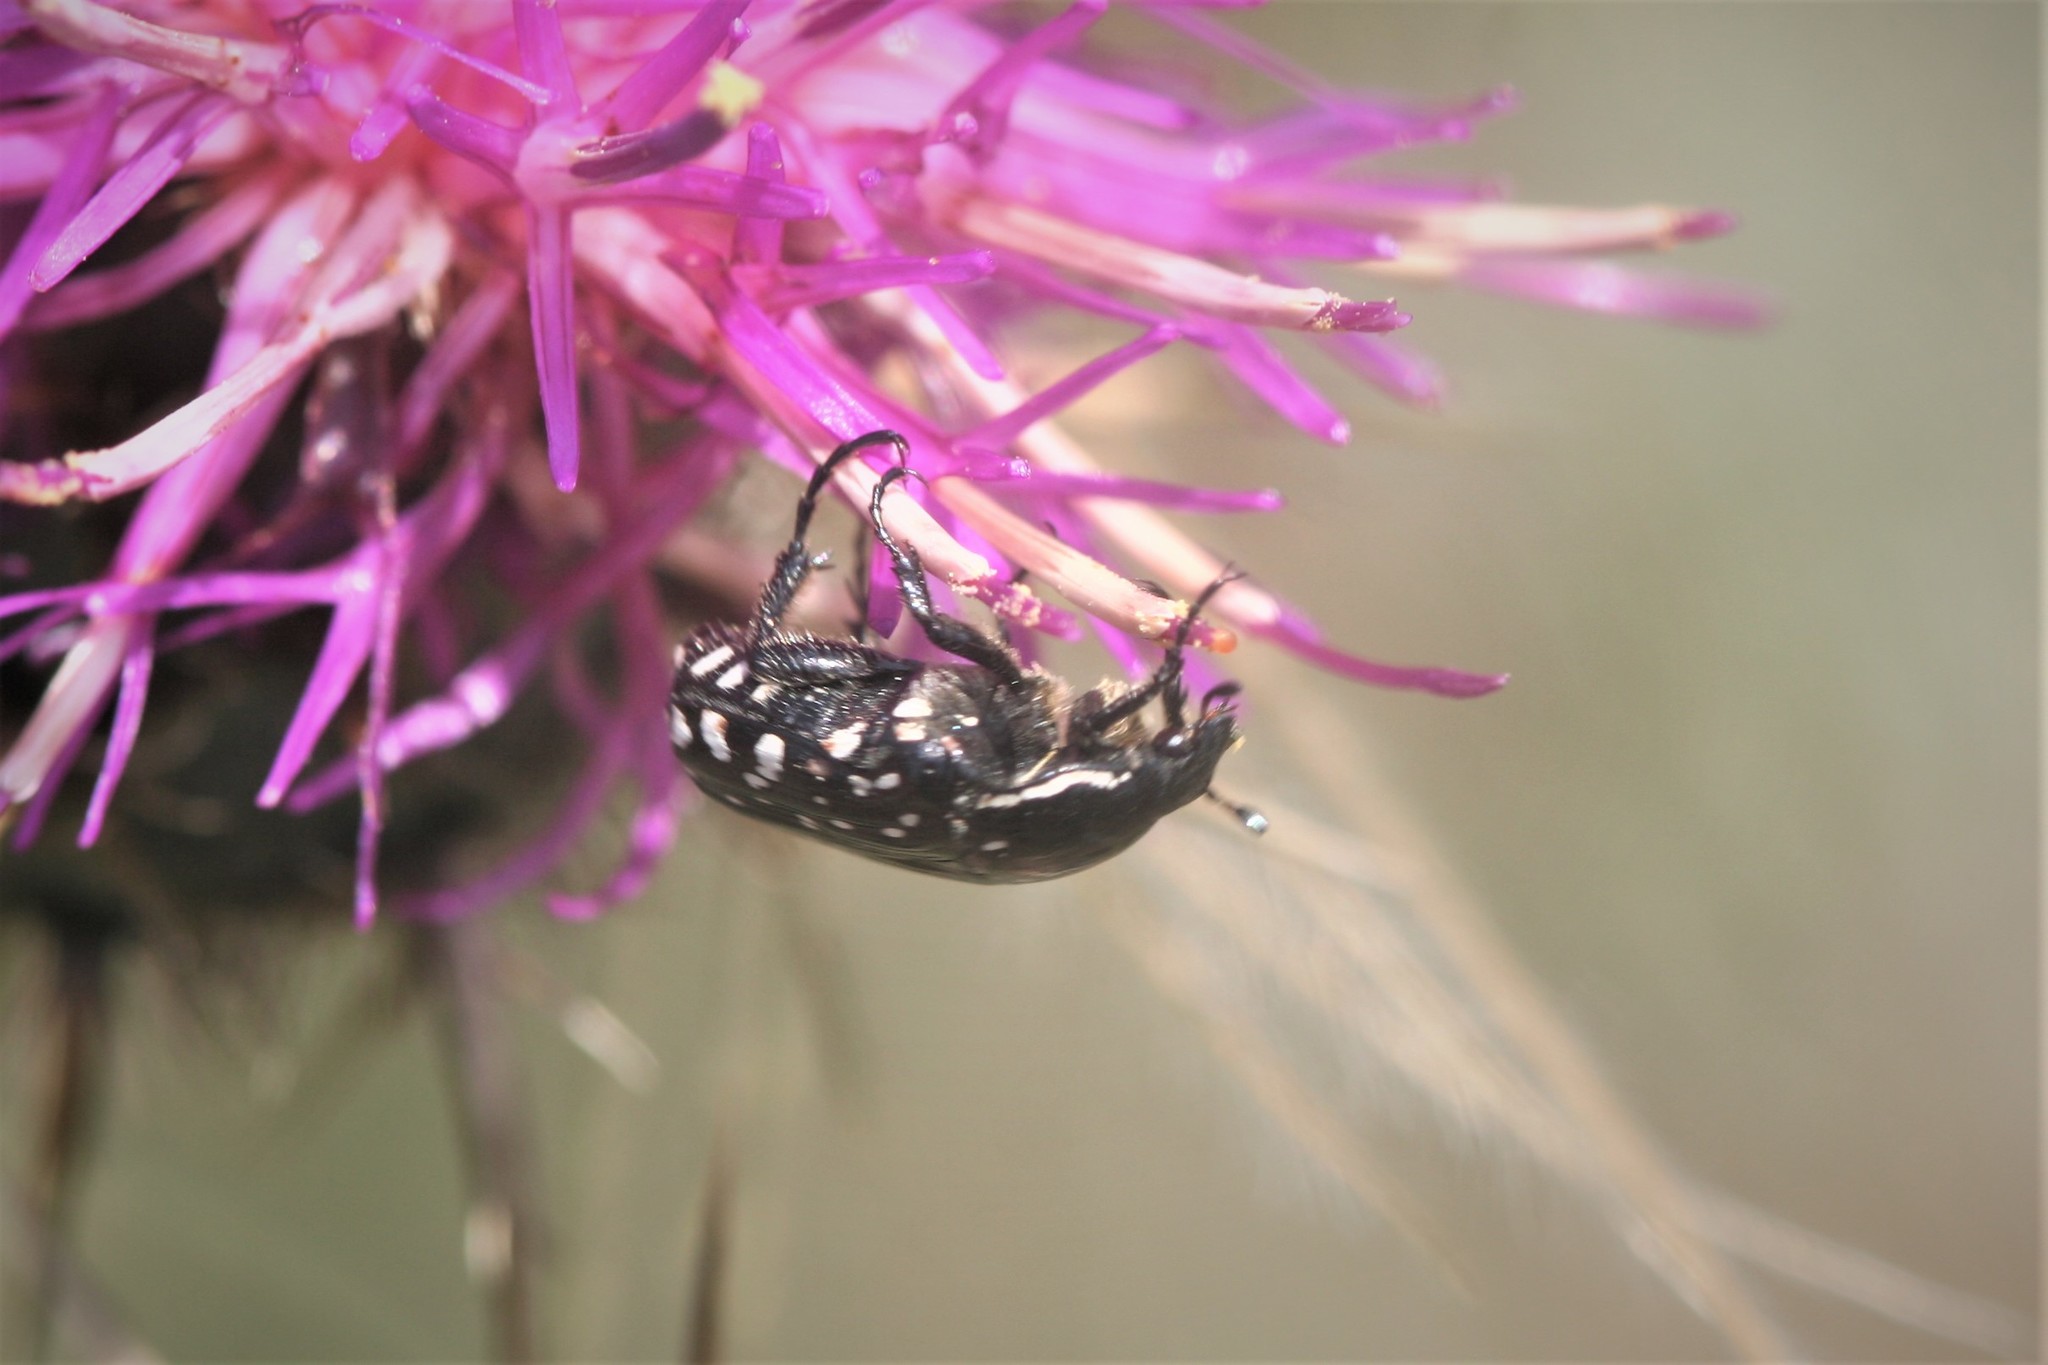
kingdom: Animalia
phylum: Arthropoda
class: Insecta
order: Coleoptera
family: Scarabaeidae
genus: Oxythyrea
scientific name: Oxythyrea cinctella
